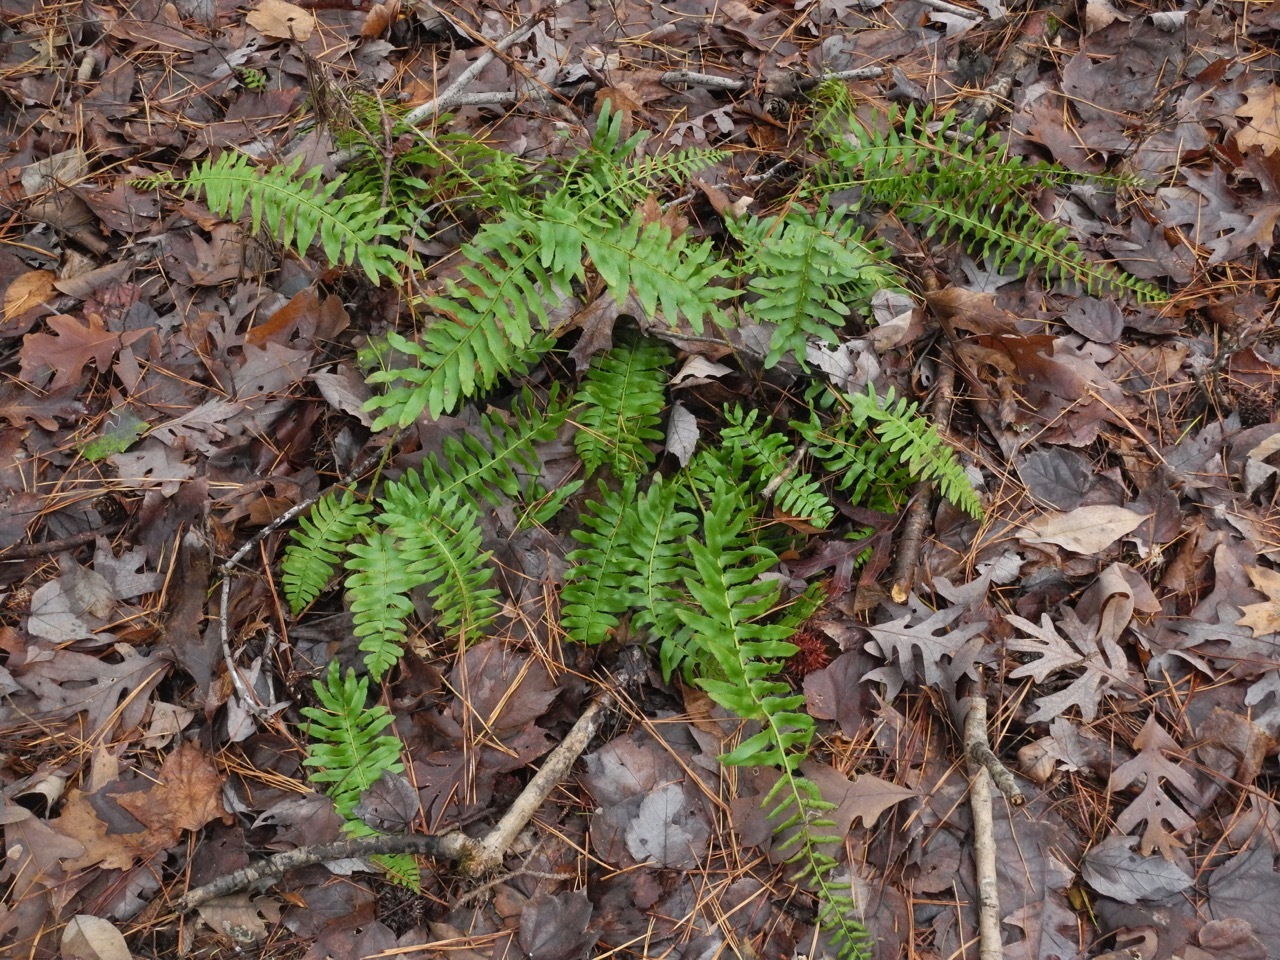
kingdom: Plantae
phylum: Tracheophyta
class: Polypodiopsida
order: Polypodiales
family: Dryopteridaceae
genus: Polystichum
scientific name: Polystichum acrostichoides
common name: Christmas fern
